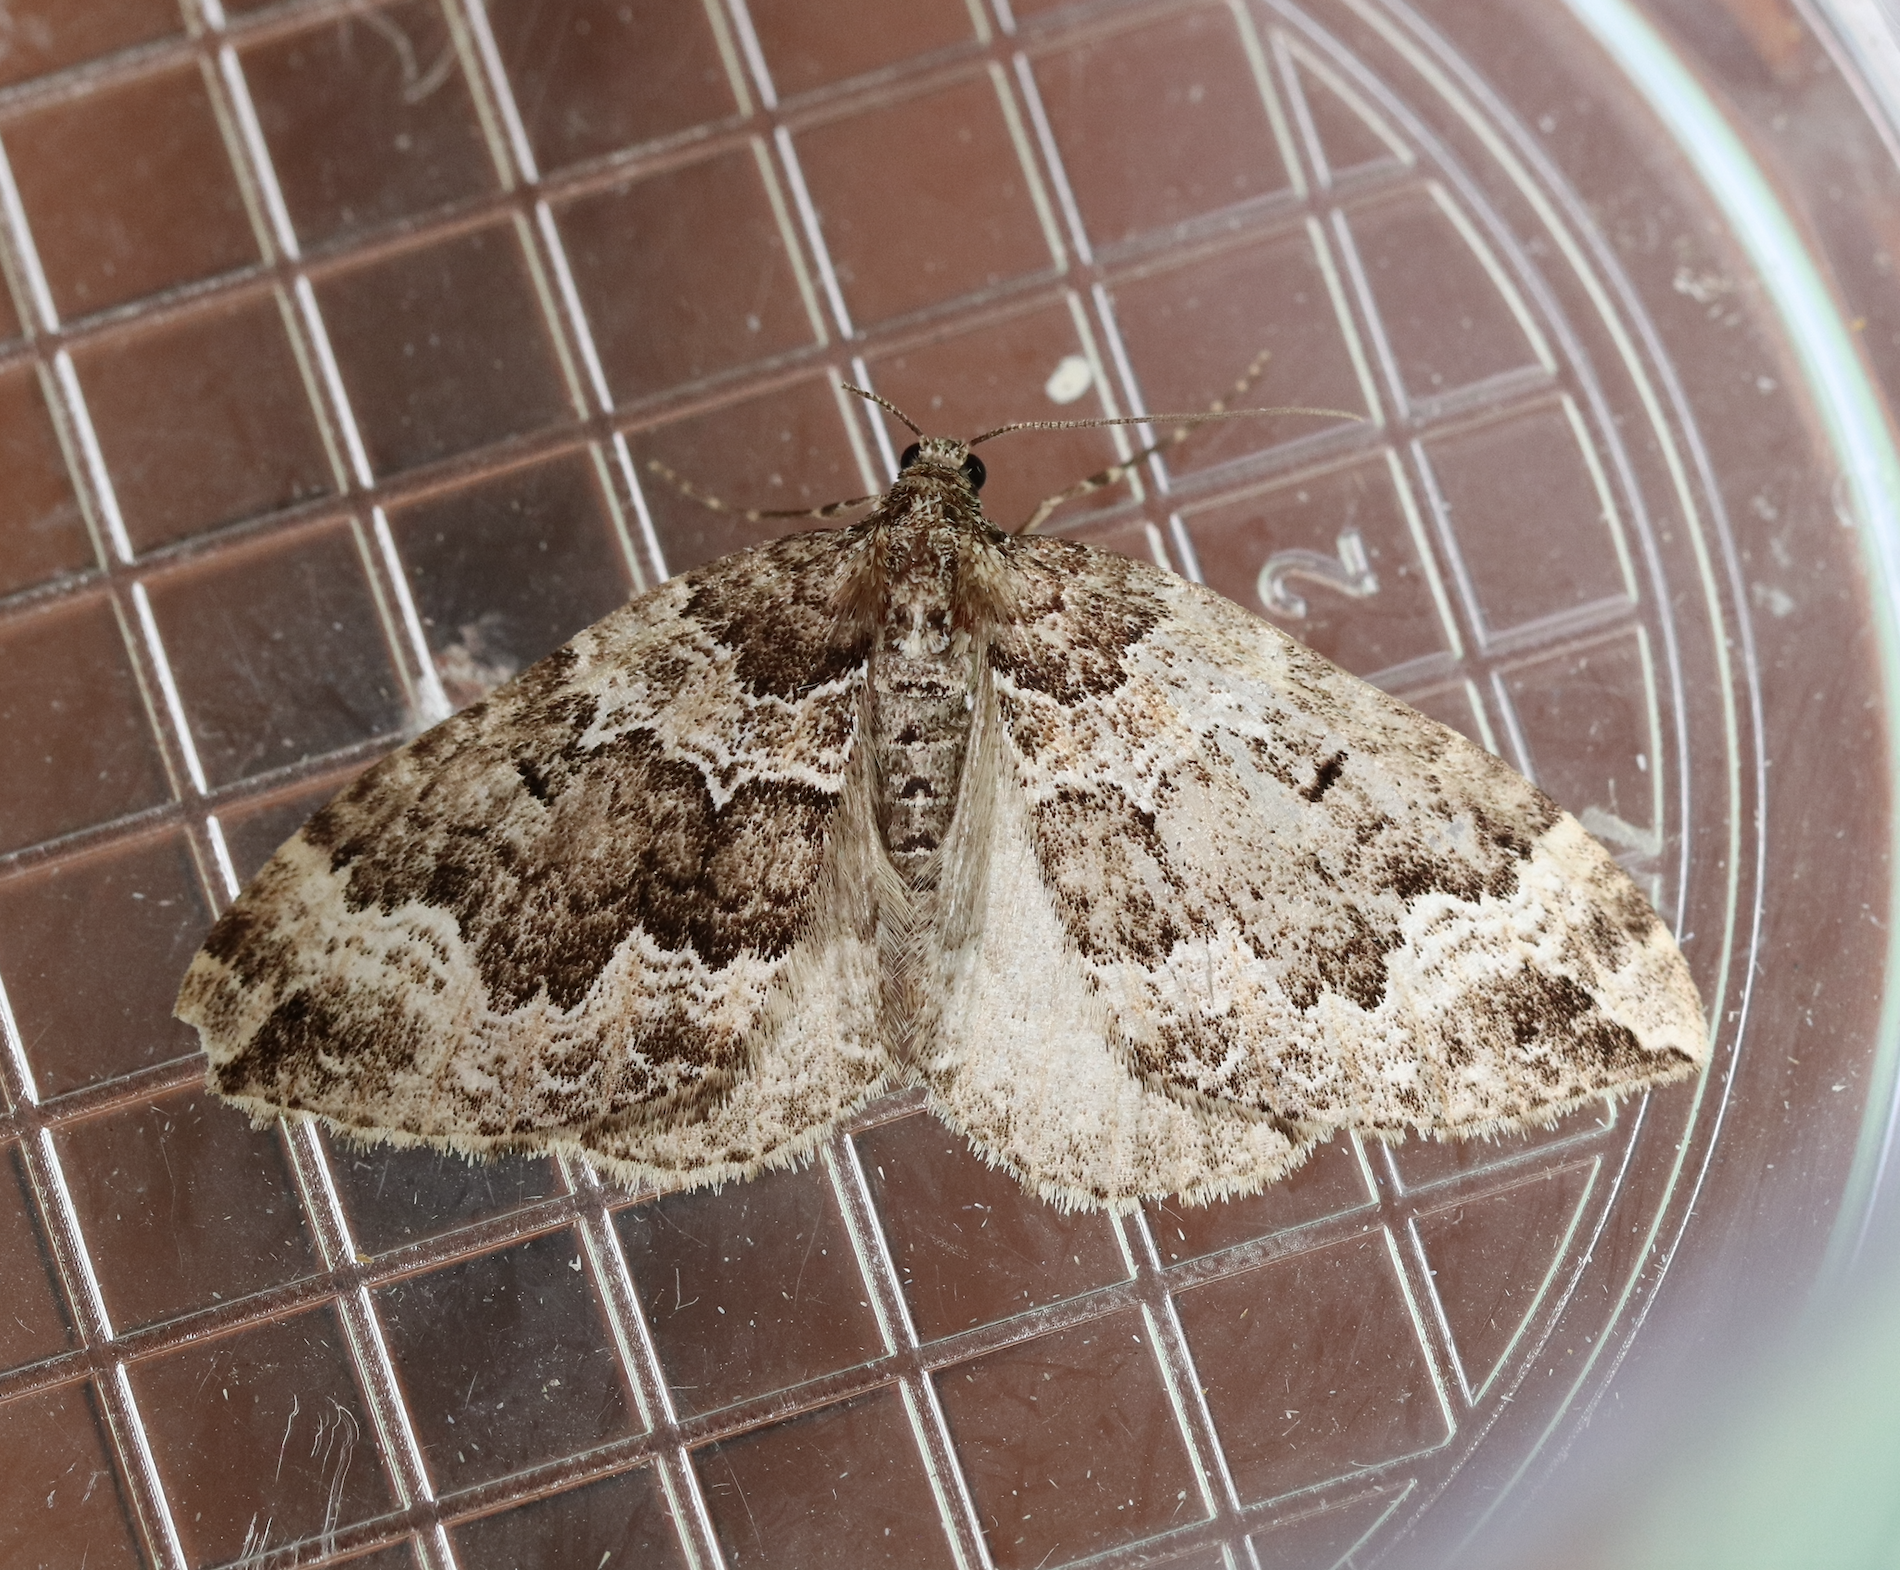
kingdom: Animalia
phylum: Arthropoda
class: Insecta
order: Lepidoptera
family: Geometridae
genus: Lampropteryx
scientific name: Lampropteryx suffumata
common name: Water carpet
